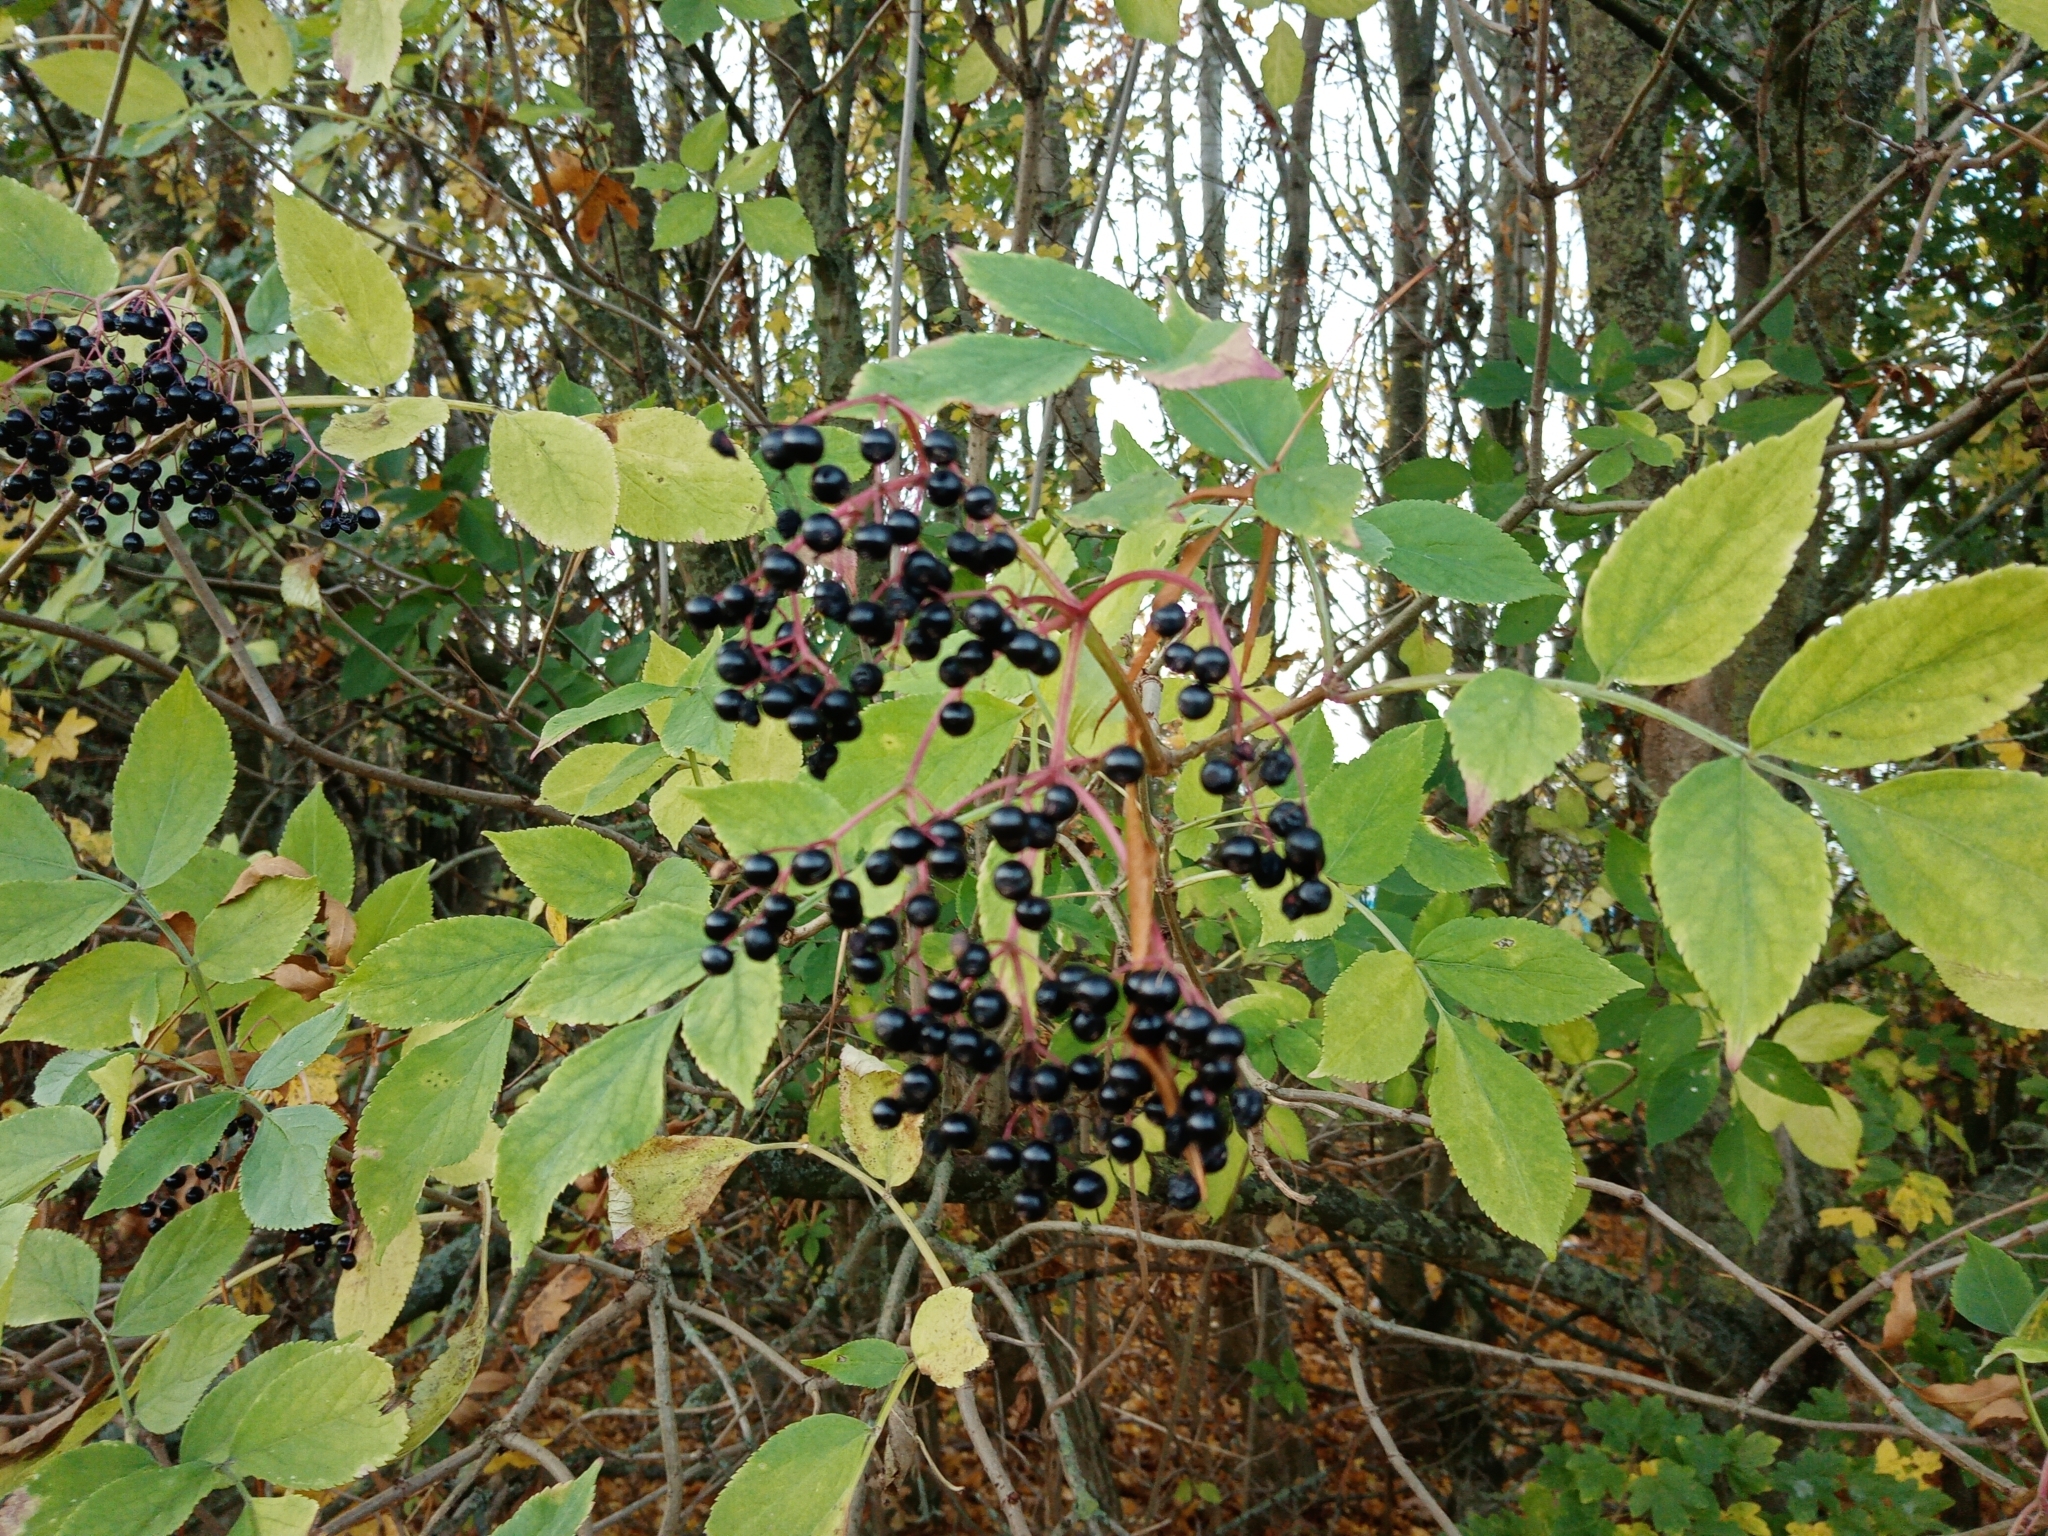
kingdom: Plantae
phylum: Tracheophyta
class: Magnoliopsida
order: Dipsacales
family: Viburnaceae
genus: Sambucus
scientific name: Sambucus nigra
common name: Elder
